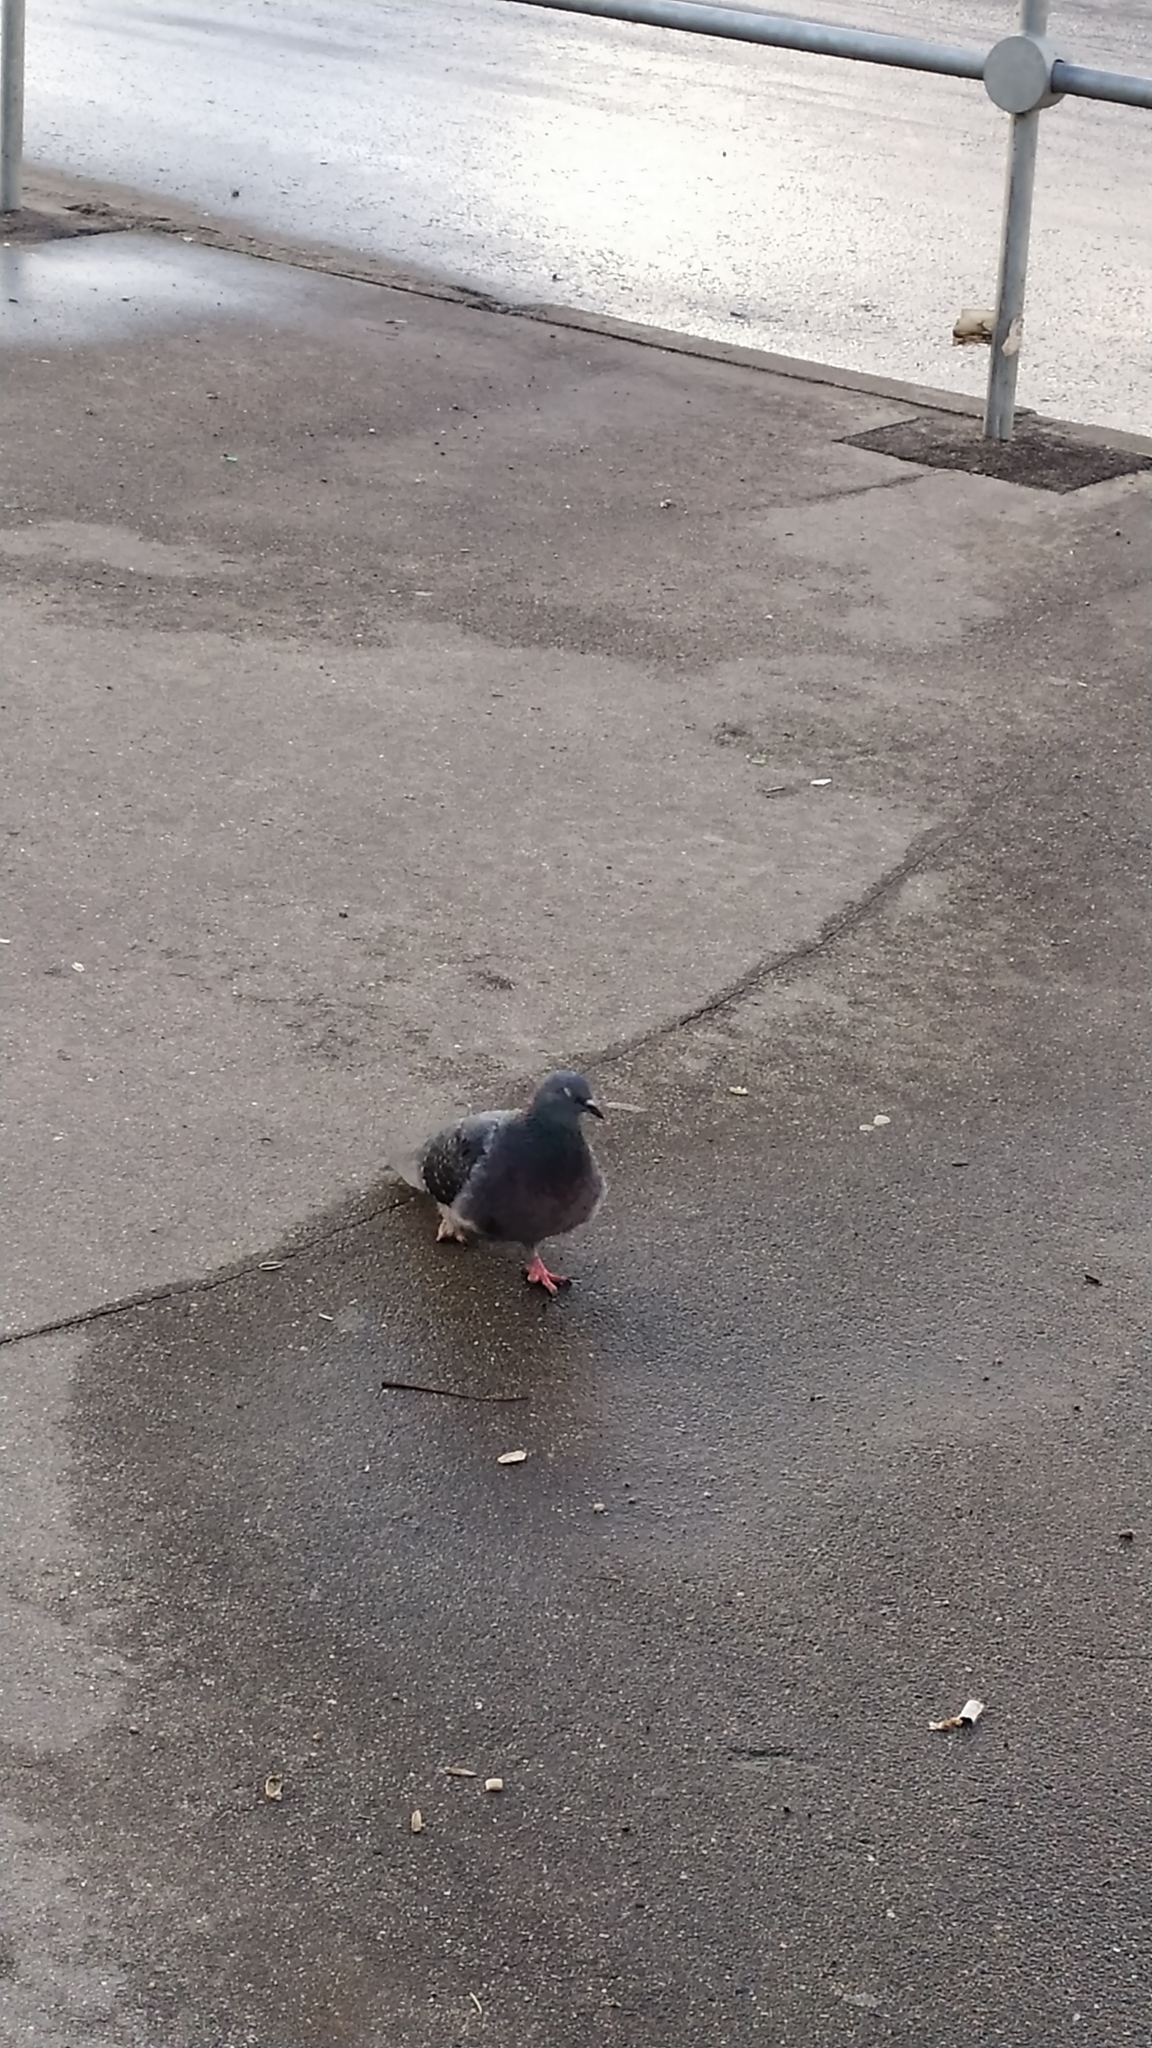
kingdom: Animalia
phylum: Chordata
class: Aves
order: Columbiformes
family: Columbidae
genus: Columba
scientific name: Columba livia
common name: Rock pigeon
